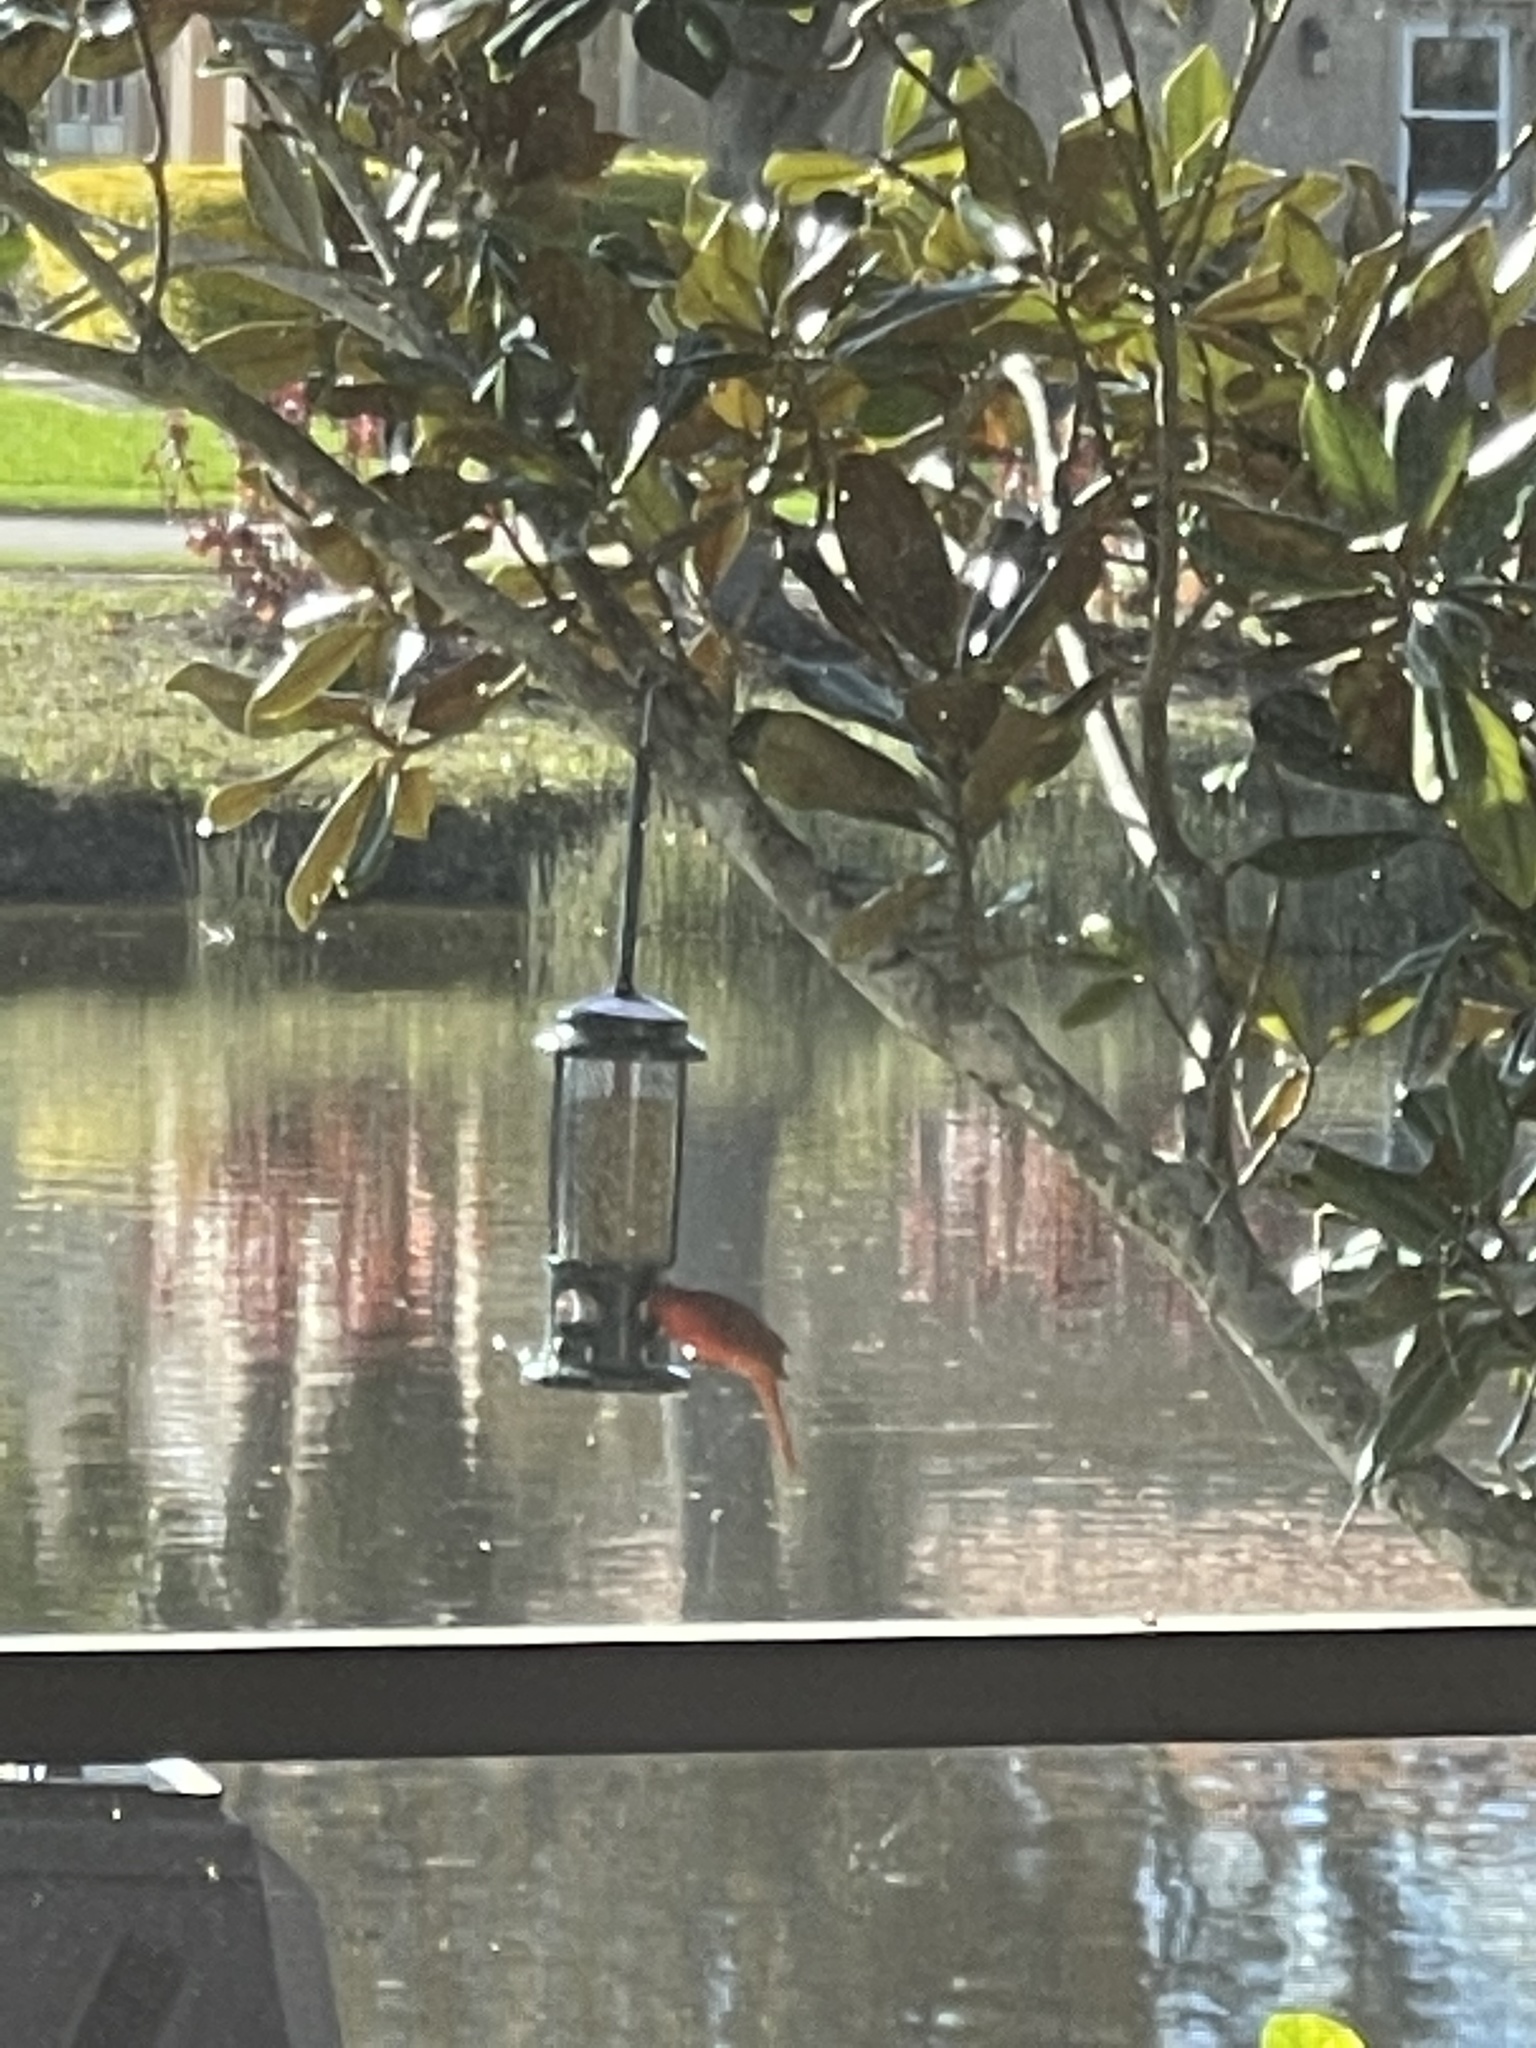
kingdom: Animalia
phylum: Chordata
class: Aves
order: Passeriformes
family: Cardinalidae
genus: Cardinalis
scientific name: Cardinalis cardinalis
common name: Northern cardinal
